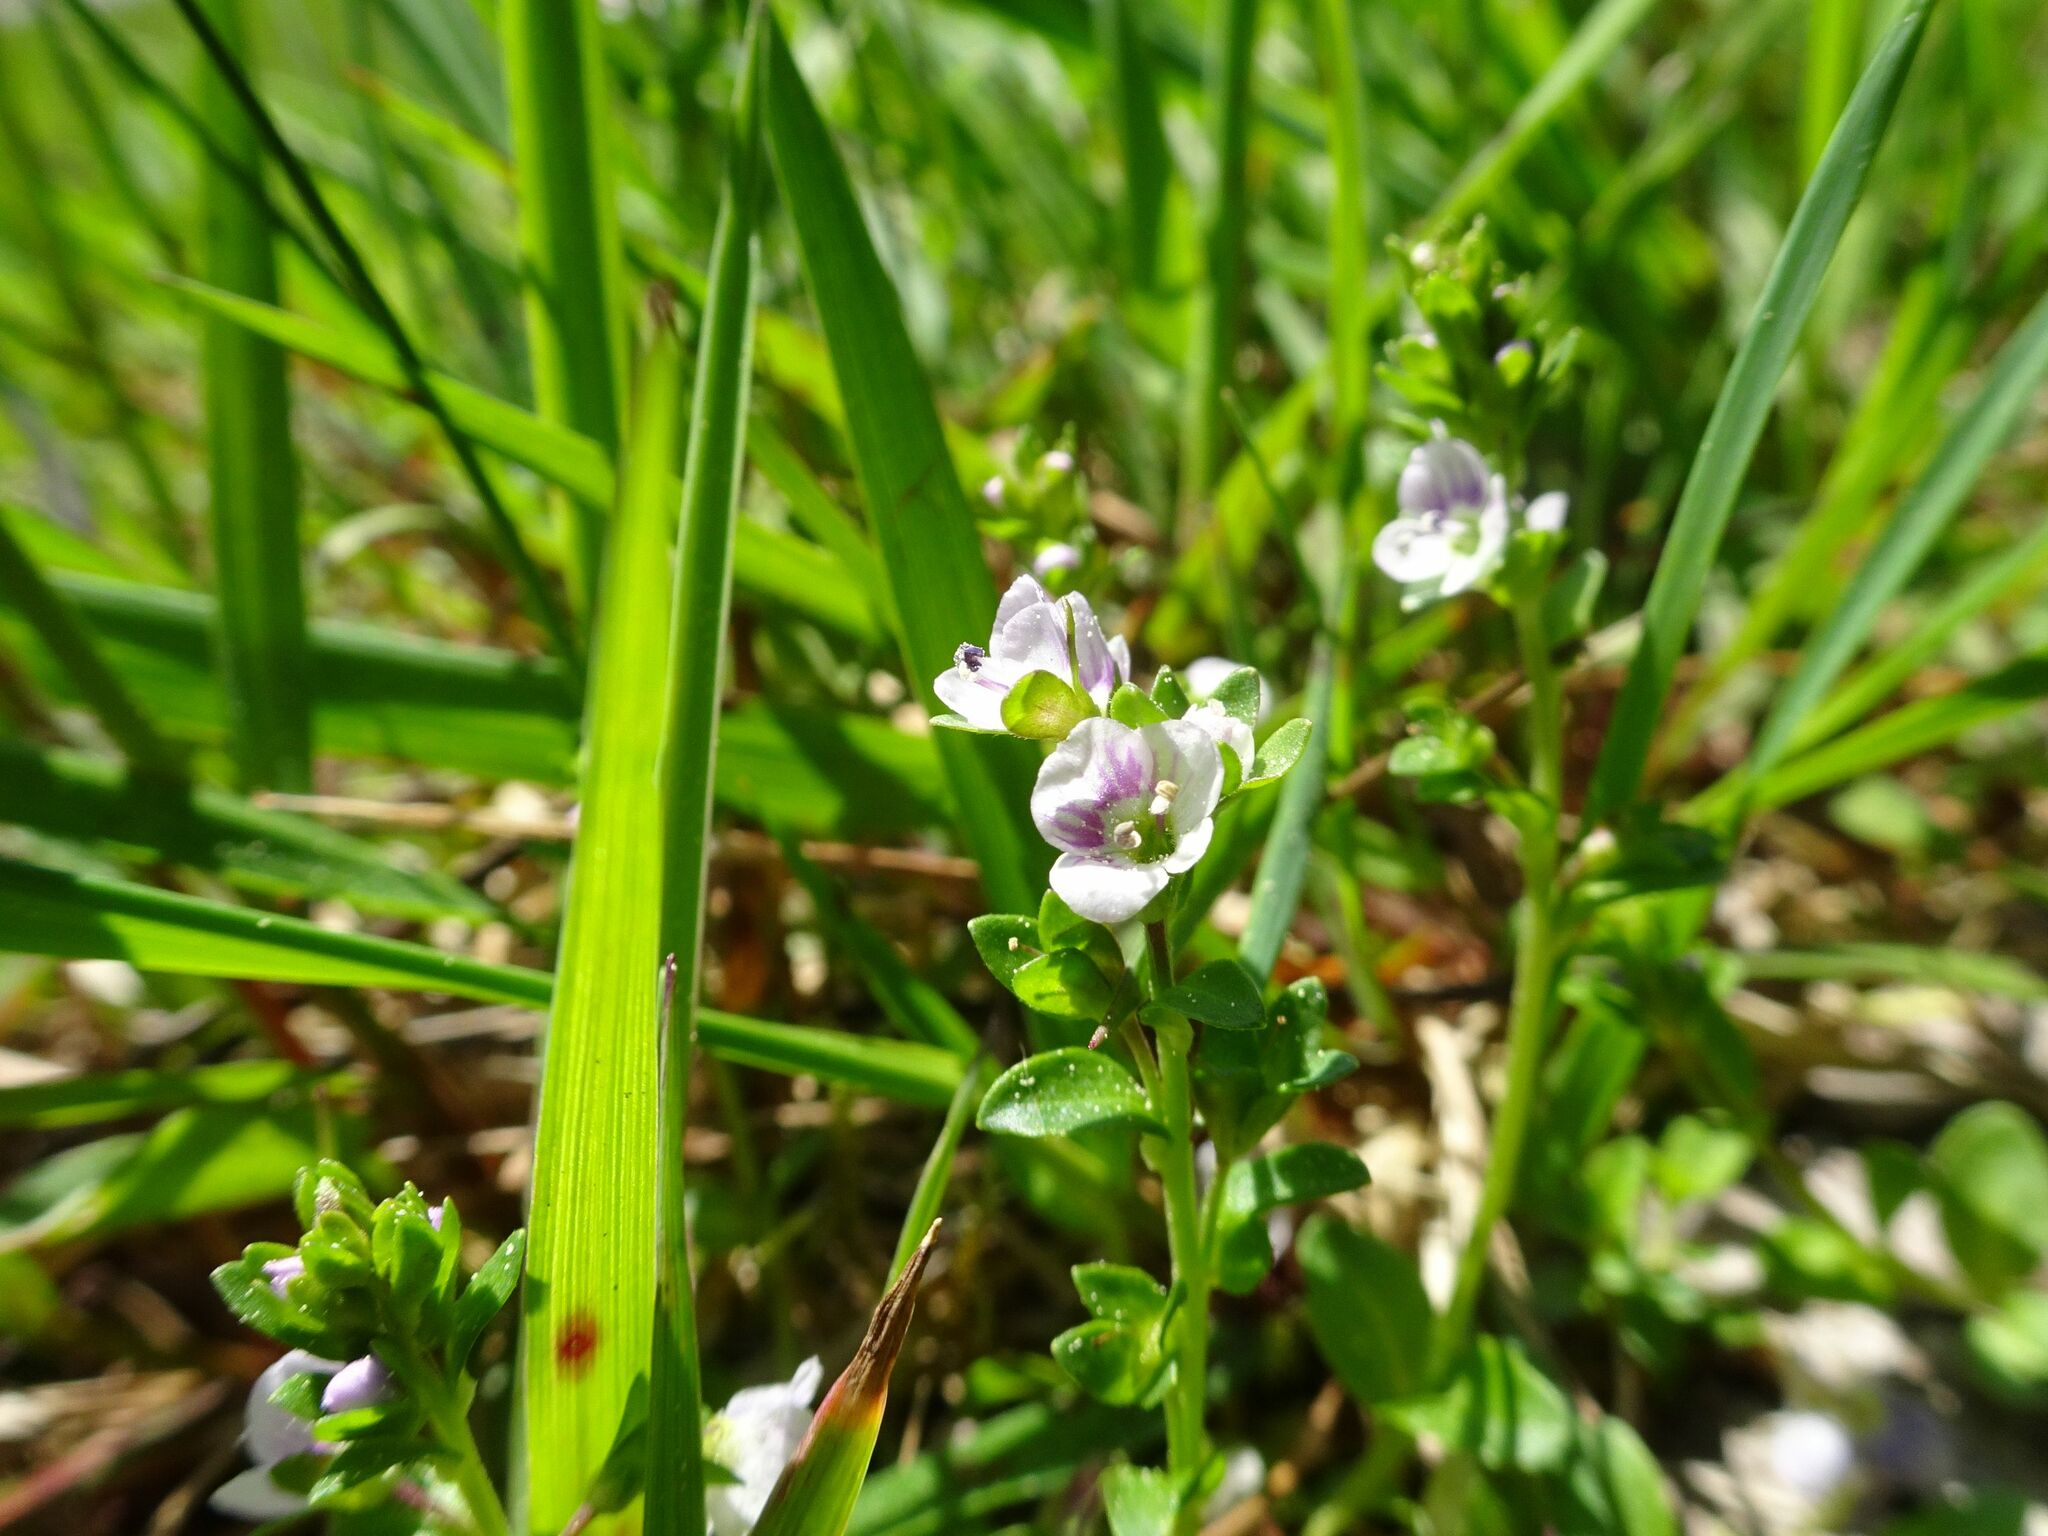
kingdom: Plantae
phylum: Tracheophyta
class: Magnoliopsida
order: Lamiales
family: Plantaginaceae
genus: Veronica
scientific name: Veronica serpyllifolia
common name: Thyme-leaved speedwell
